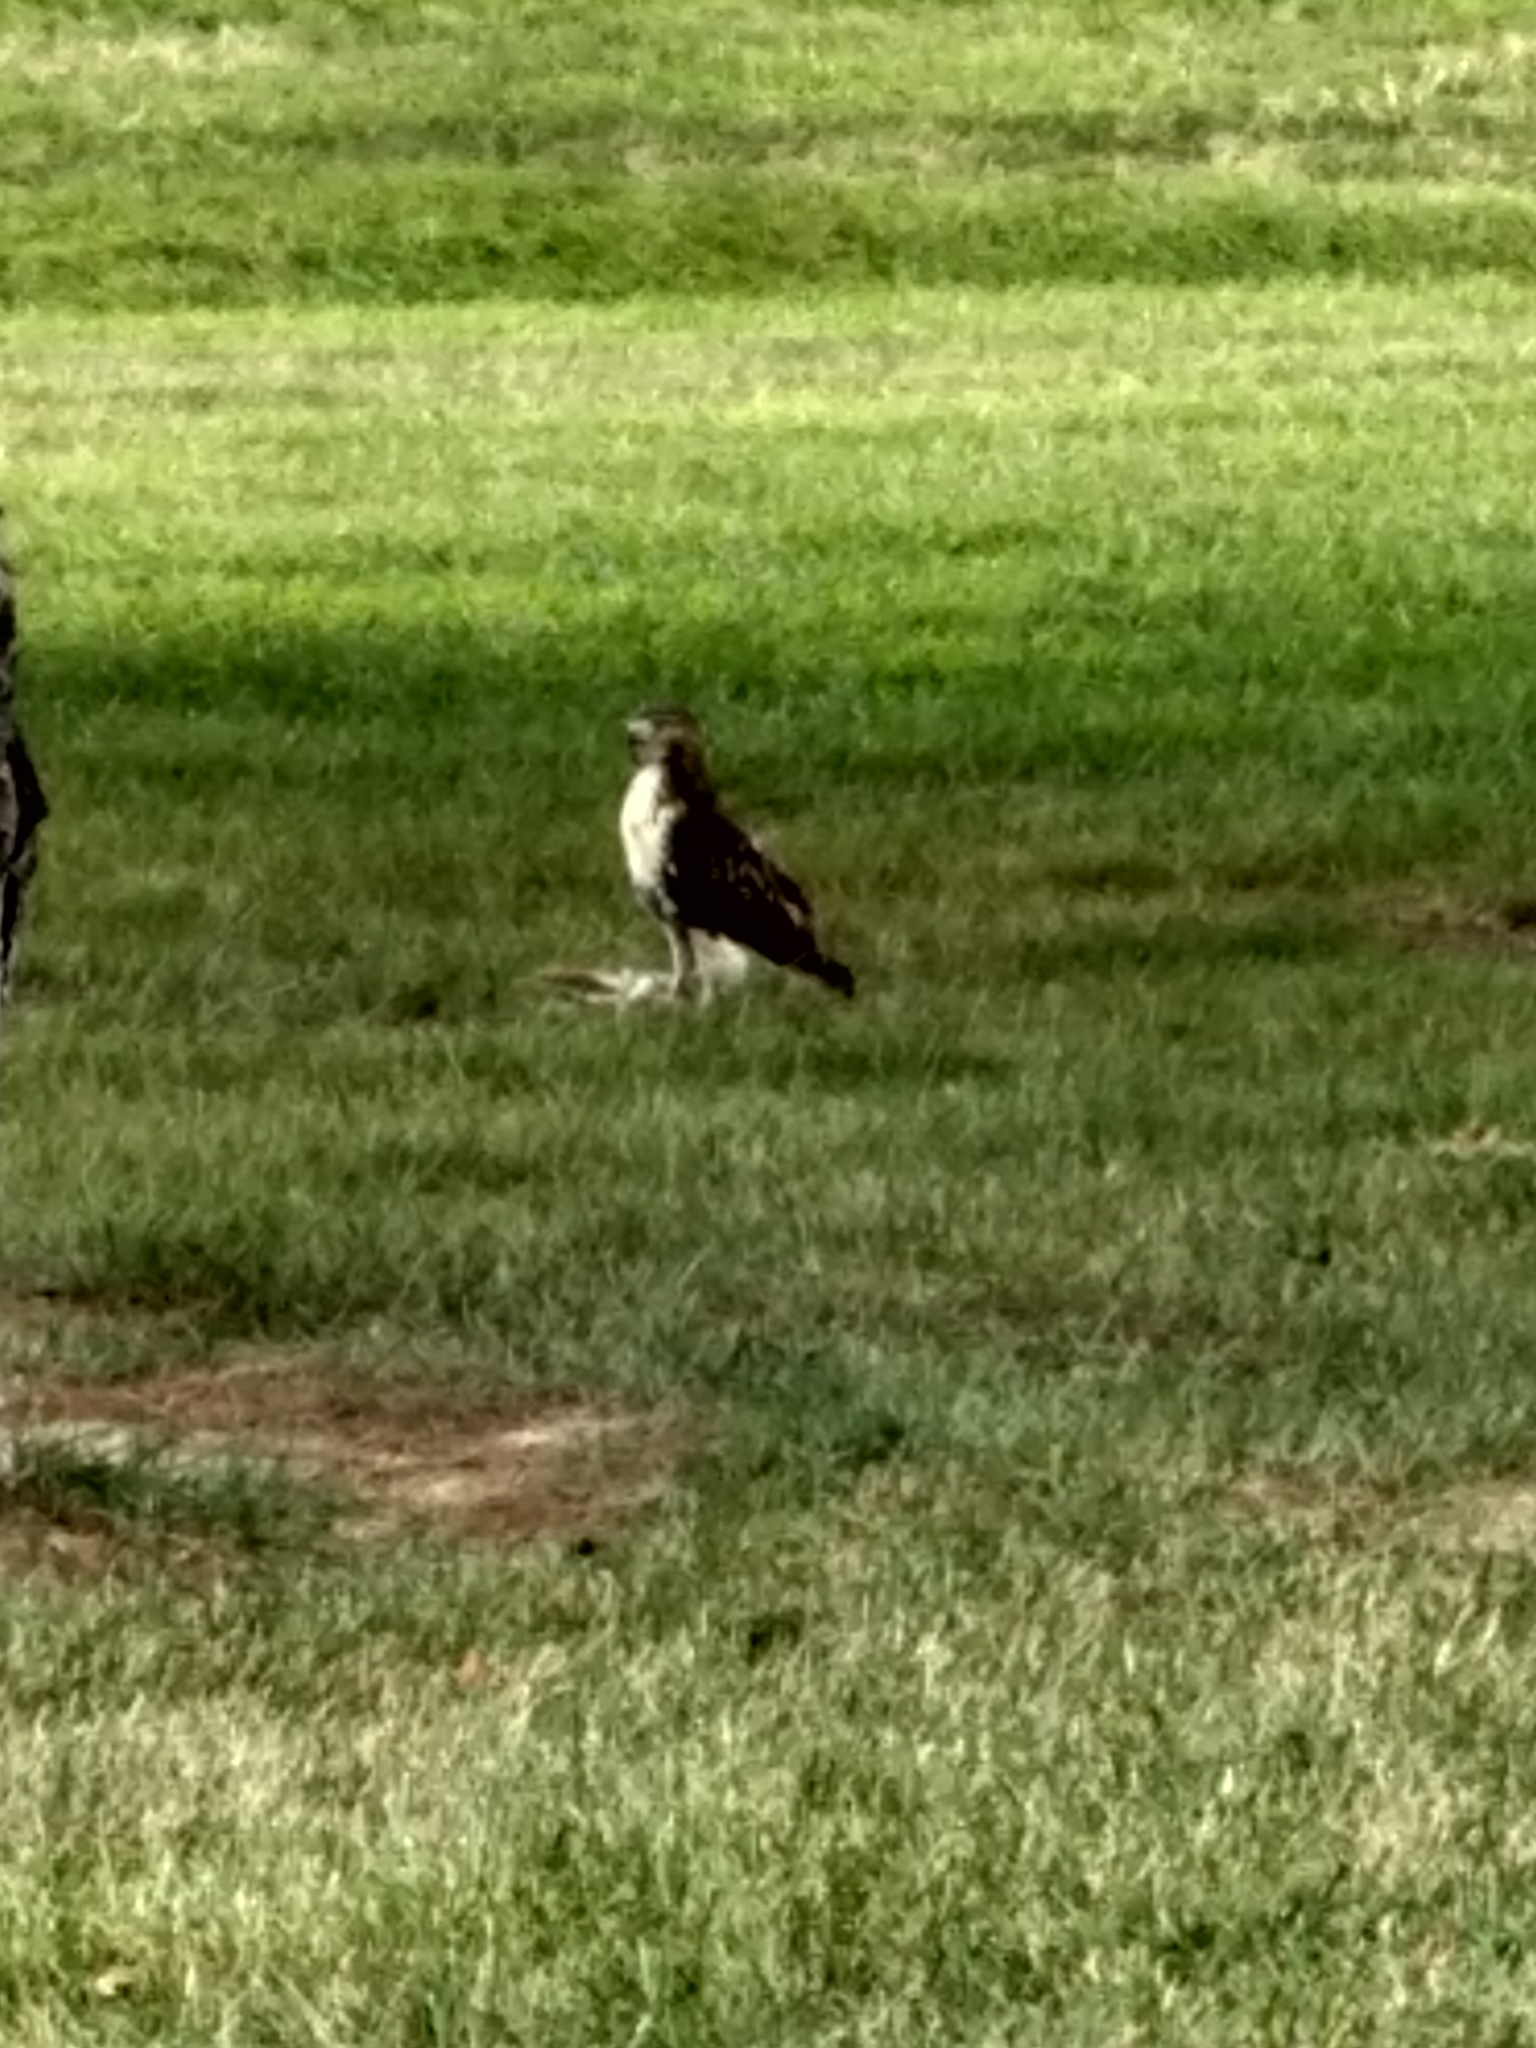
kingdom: Animalia
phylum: Chordata
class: Aves
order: Accipitriformes
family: Accipitridae
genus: Buteo
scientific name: Buteo jamaicensis
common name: Red-tailed hawk
